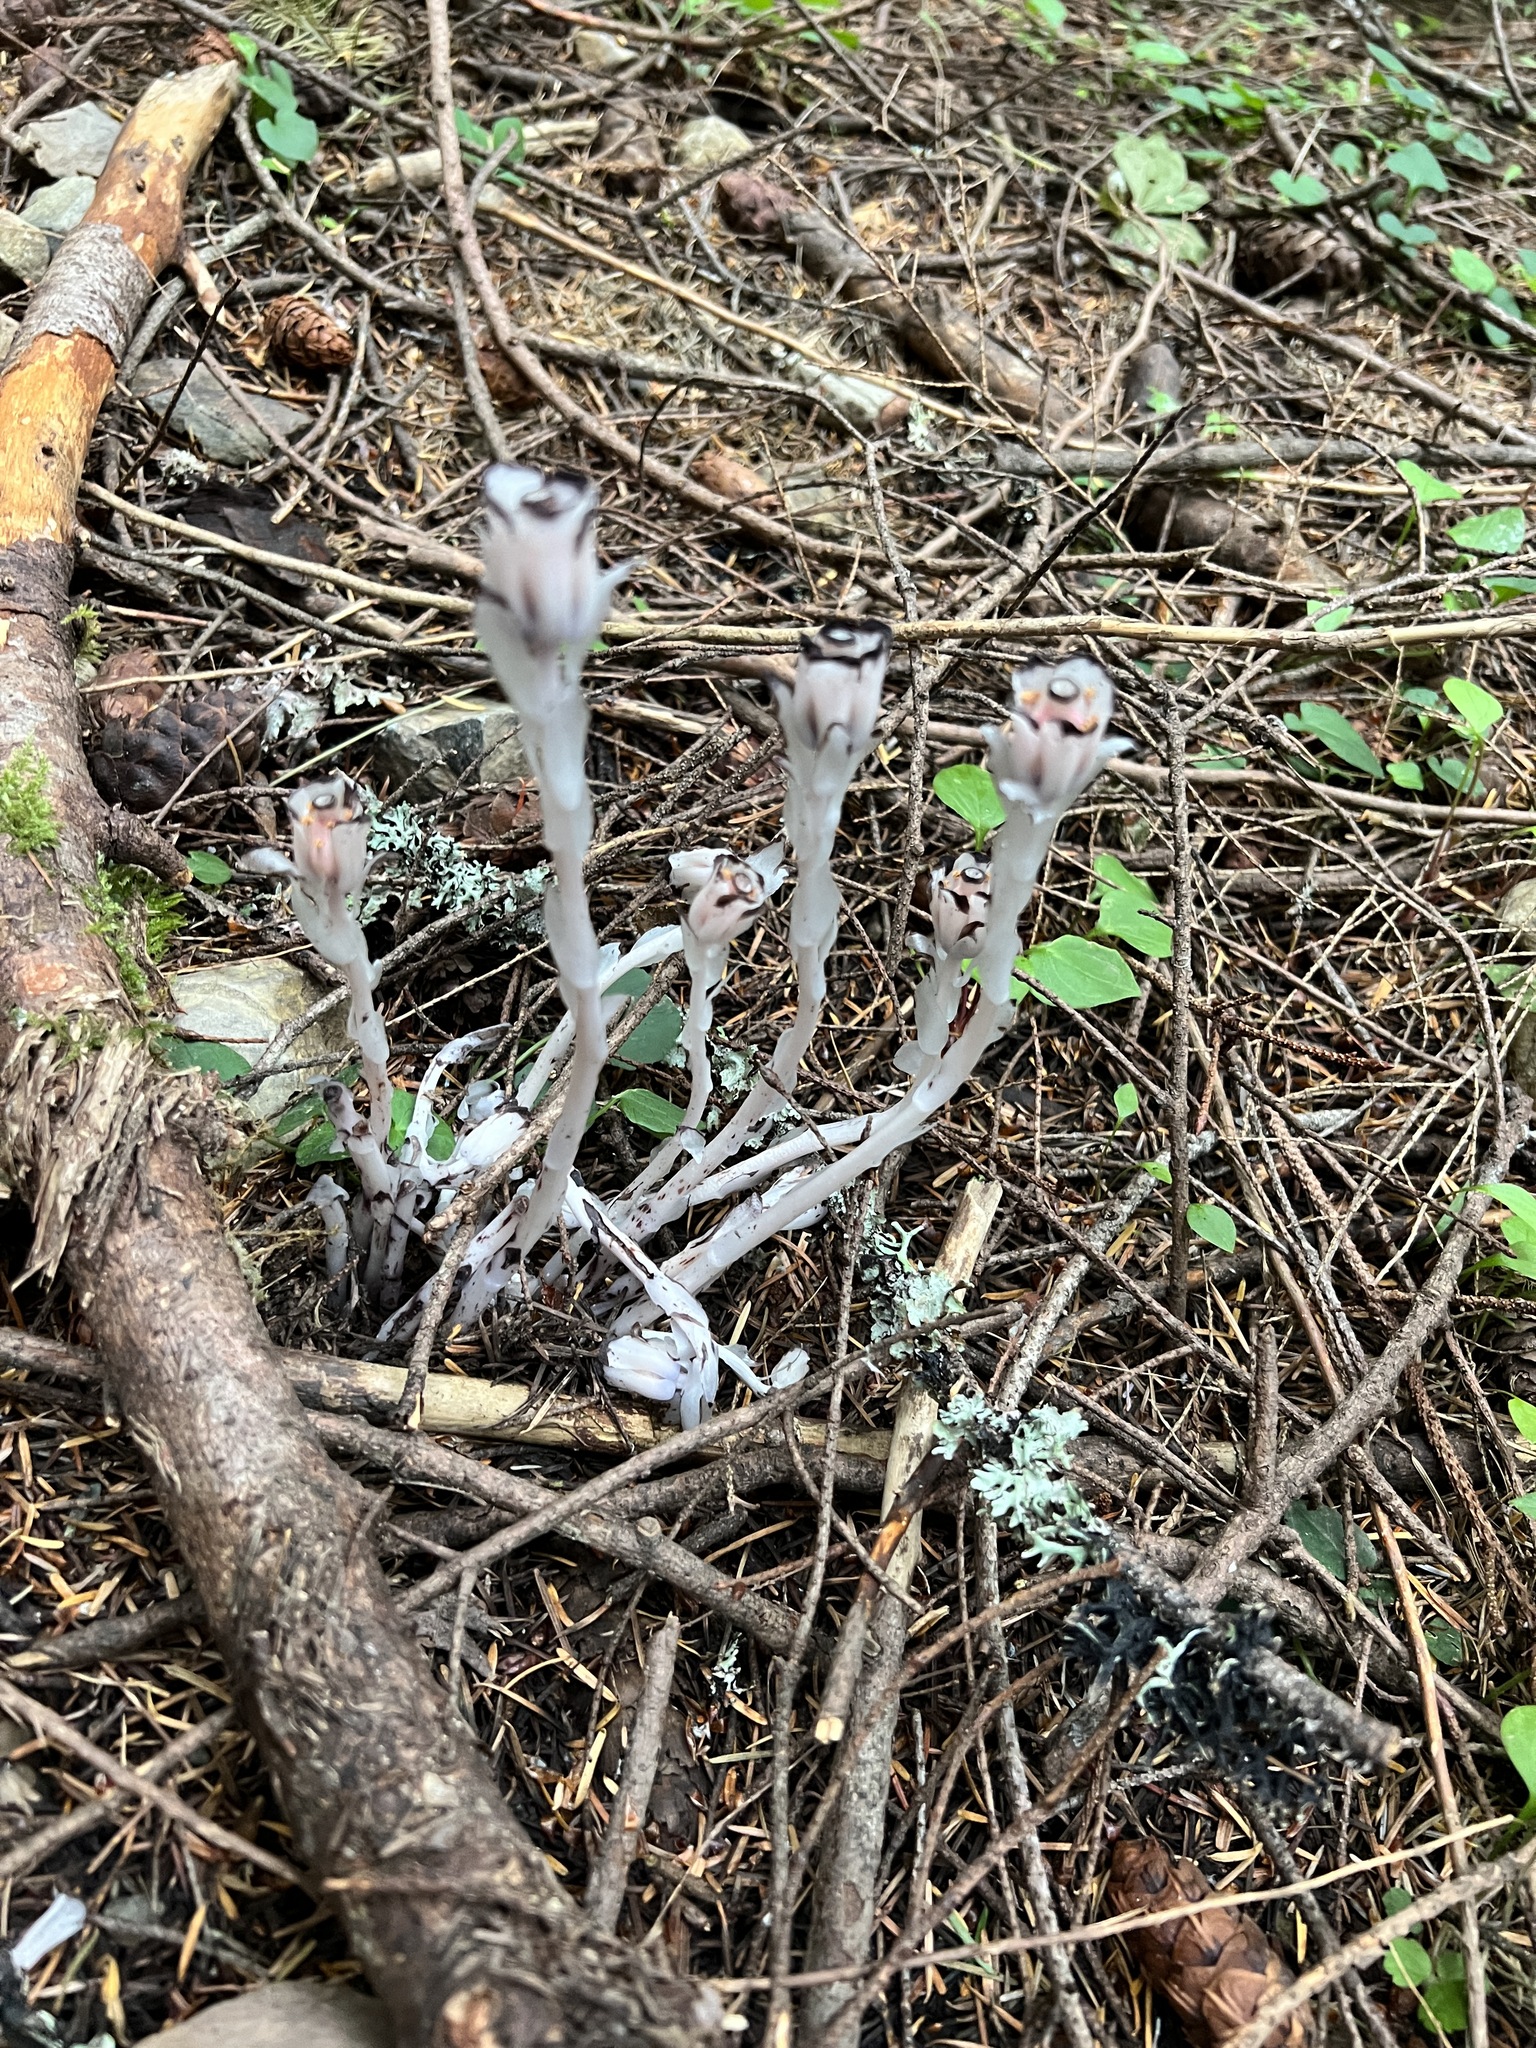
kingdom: Plantae
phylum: Tracheophyta
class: Magnoliopsida
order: Ericales
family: Ericaceae
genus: Monotropa
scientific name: Monotropa uniflora
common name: Convulsion root
